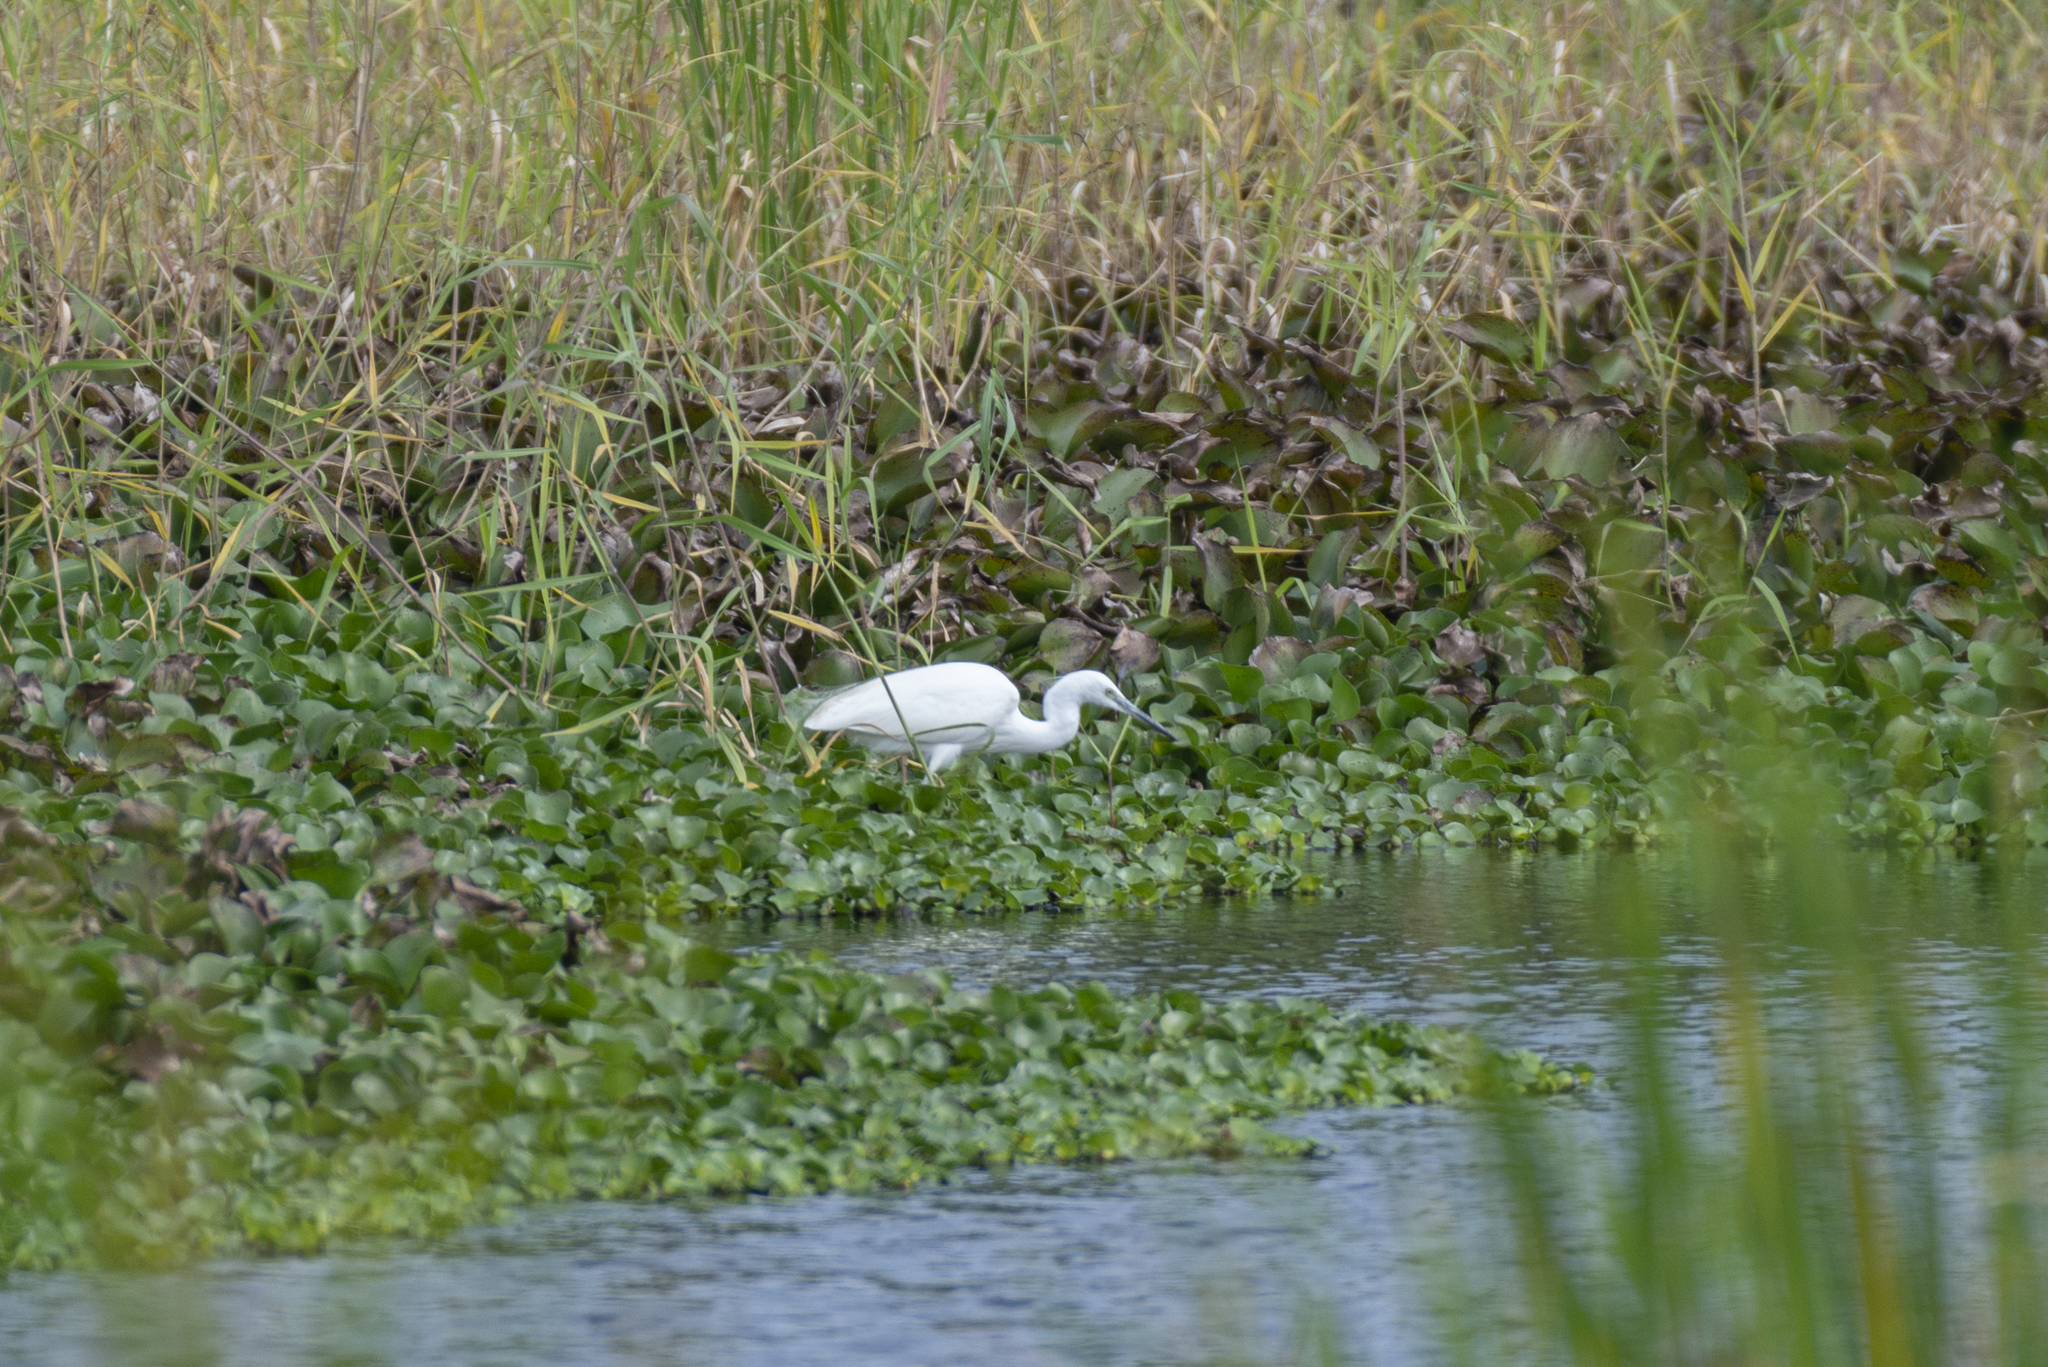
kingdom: Animalia
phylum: Chordata
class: Aves
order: Pelecaniformes
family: Ardeidae
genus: Egretta
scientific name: Egretta garzetta
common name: Little egret
